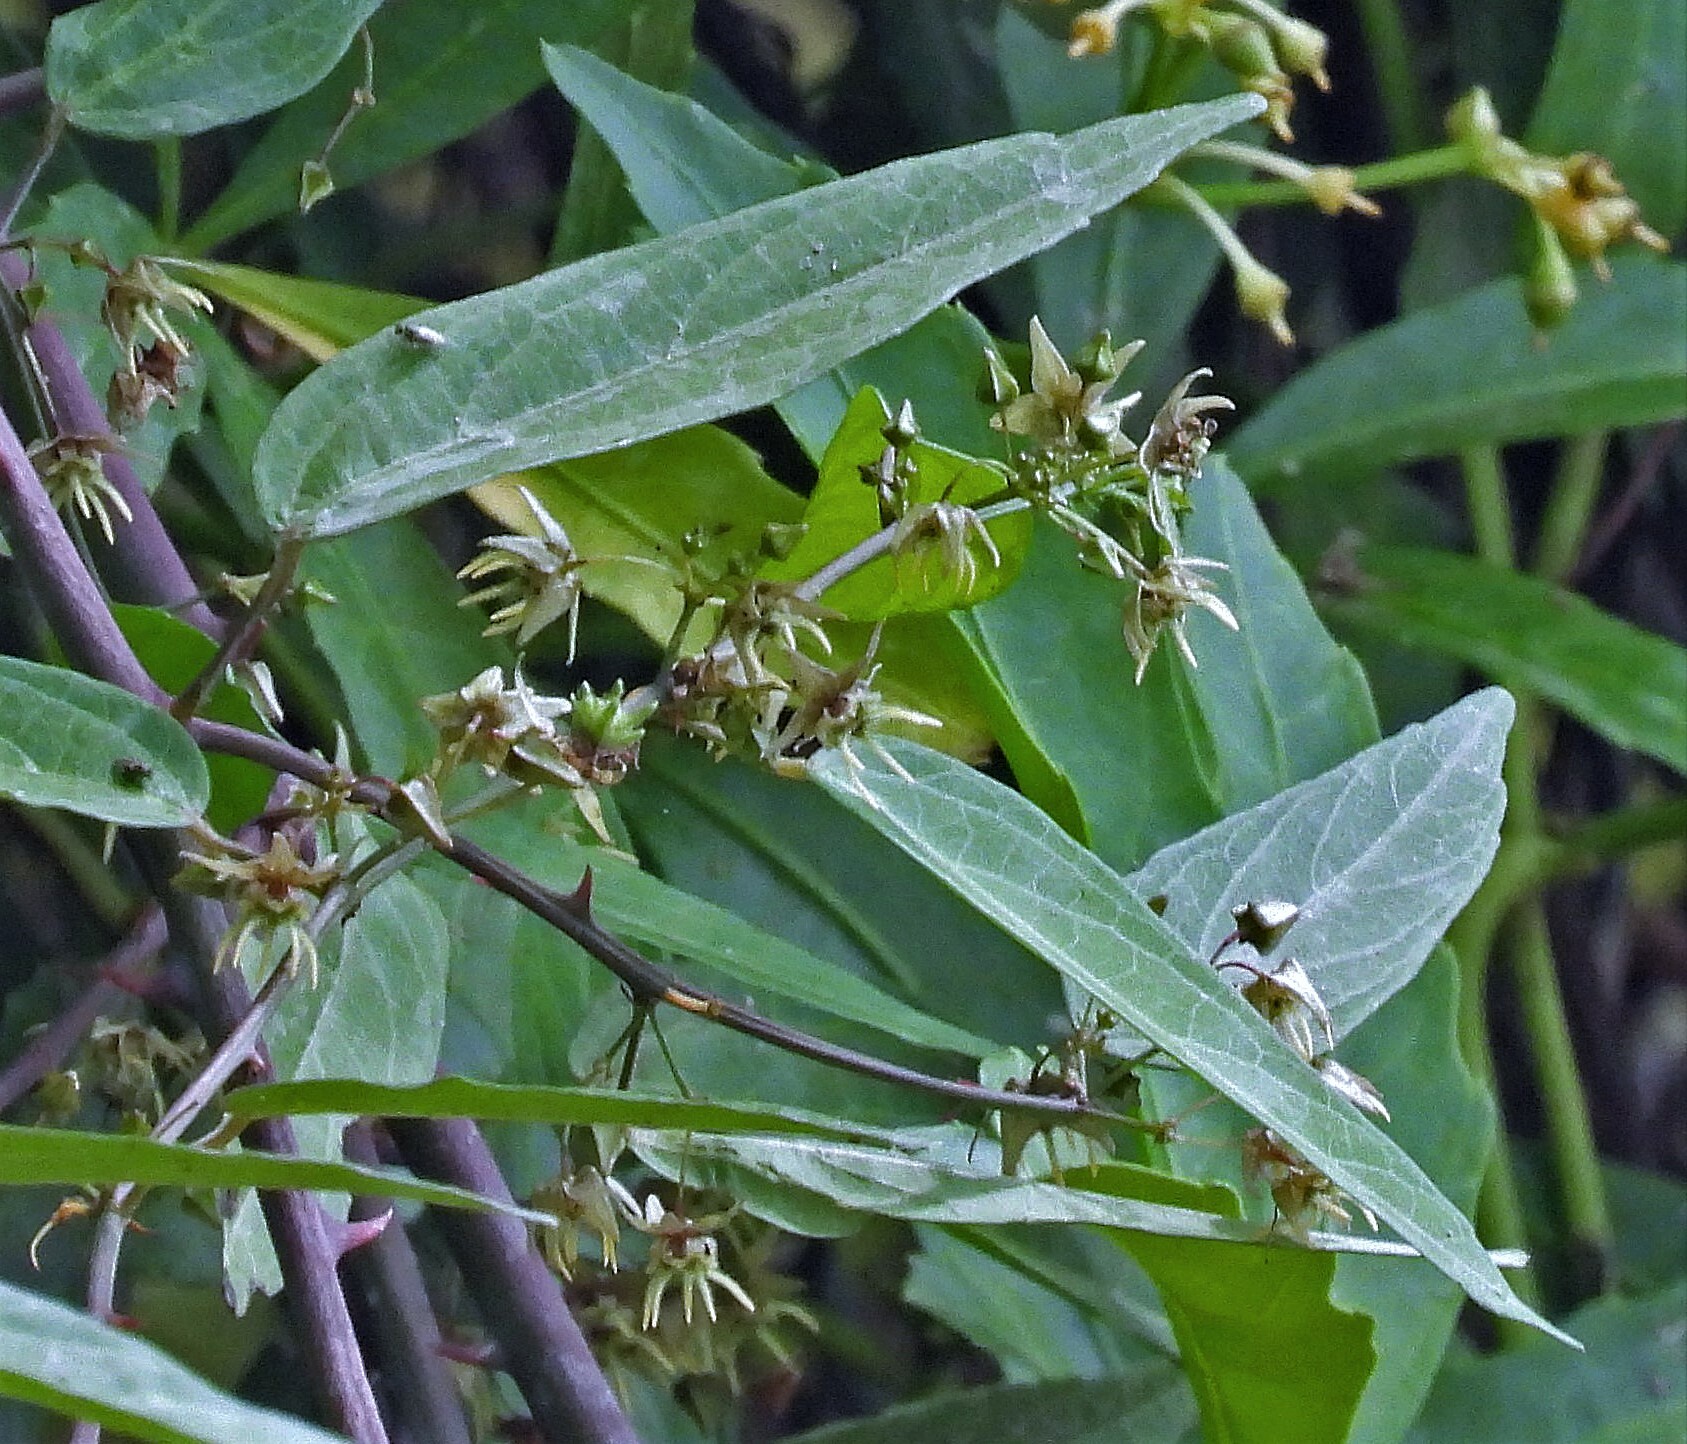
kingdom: Plantae
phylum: Tracheophyta
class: Magnoliopsida
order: Malvales
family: Malvaceae
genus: Byttneria
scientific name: Byttneria filipes
